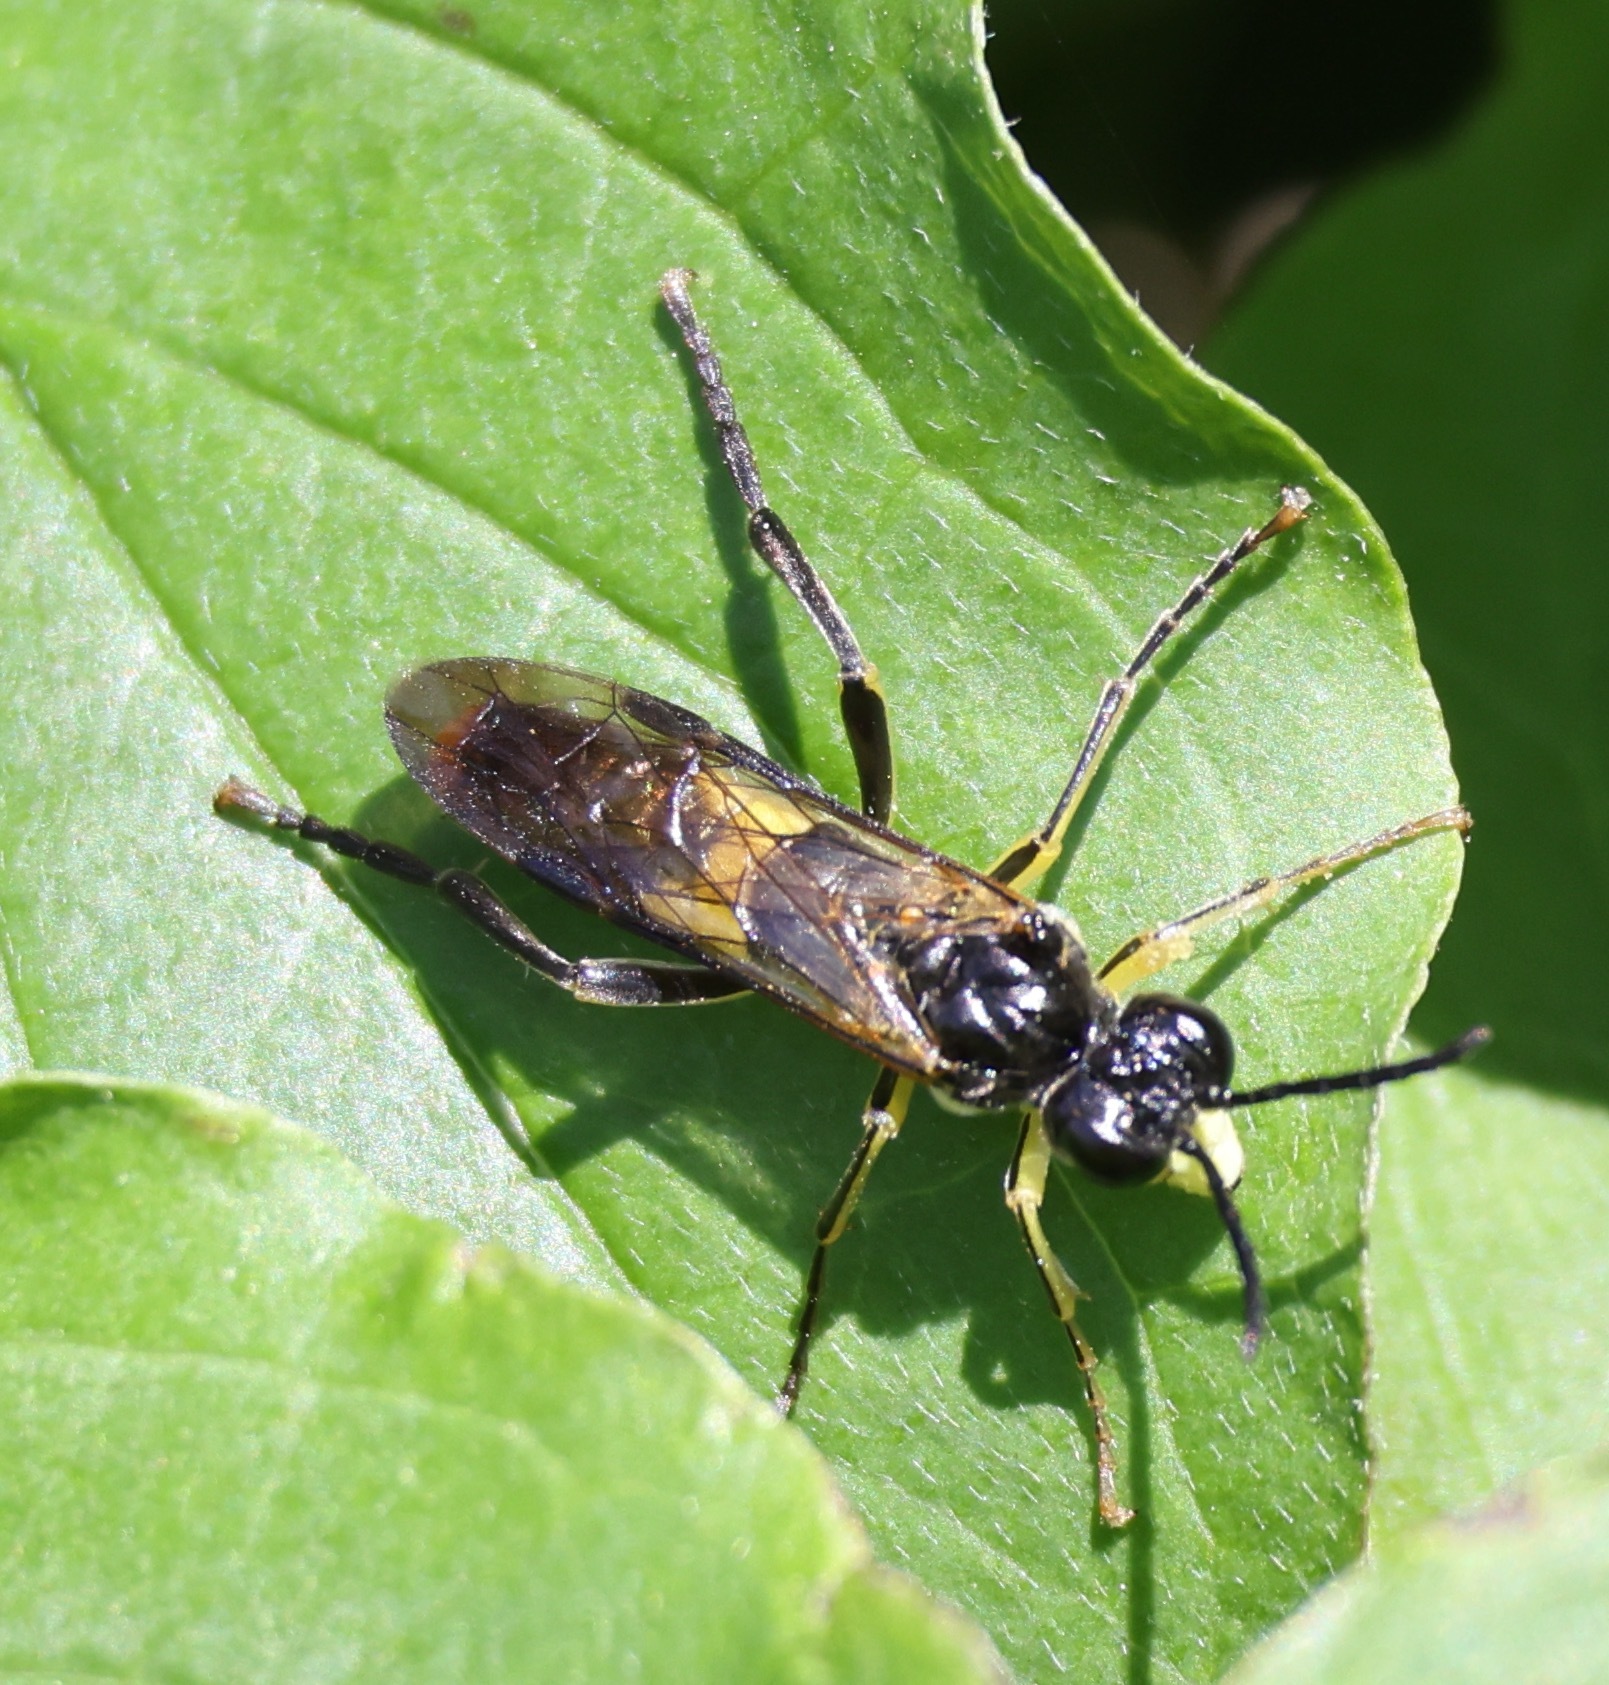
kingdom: Animalia
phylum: Arthropoda
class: Insecta
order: Hymenoptera
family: Tenthredinidae
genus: Tenthredo
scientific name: Tenthredo temula
